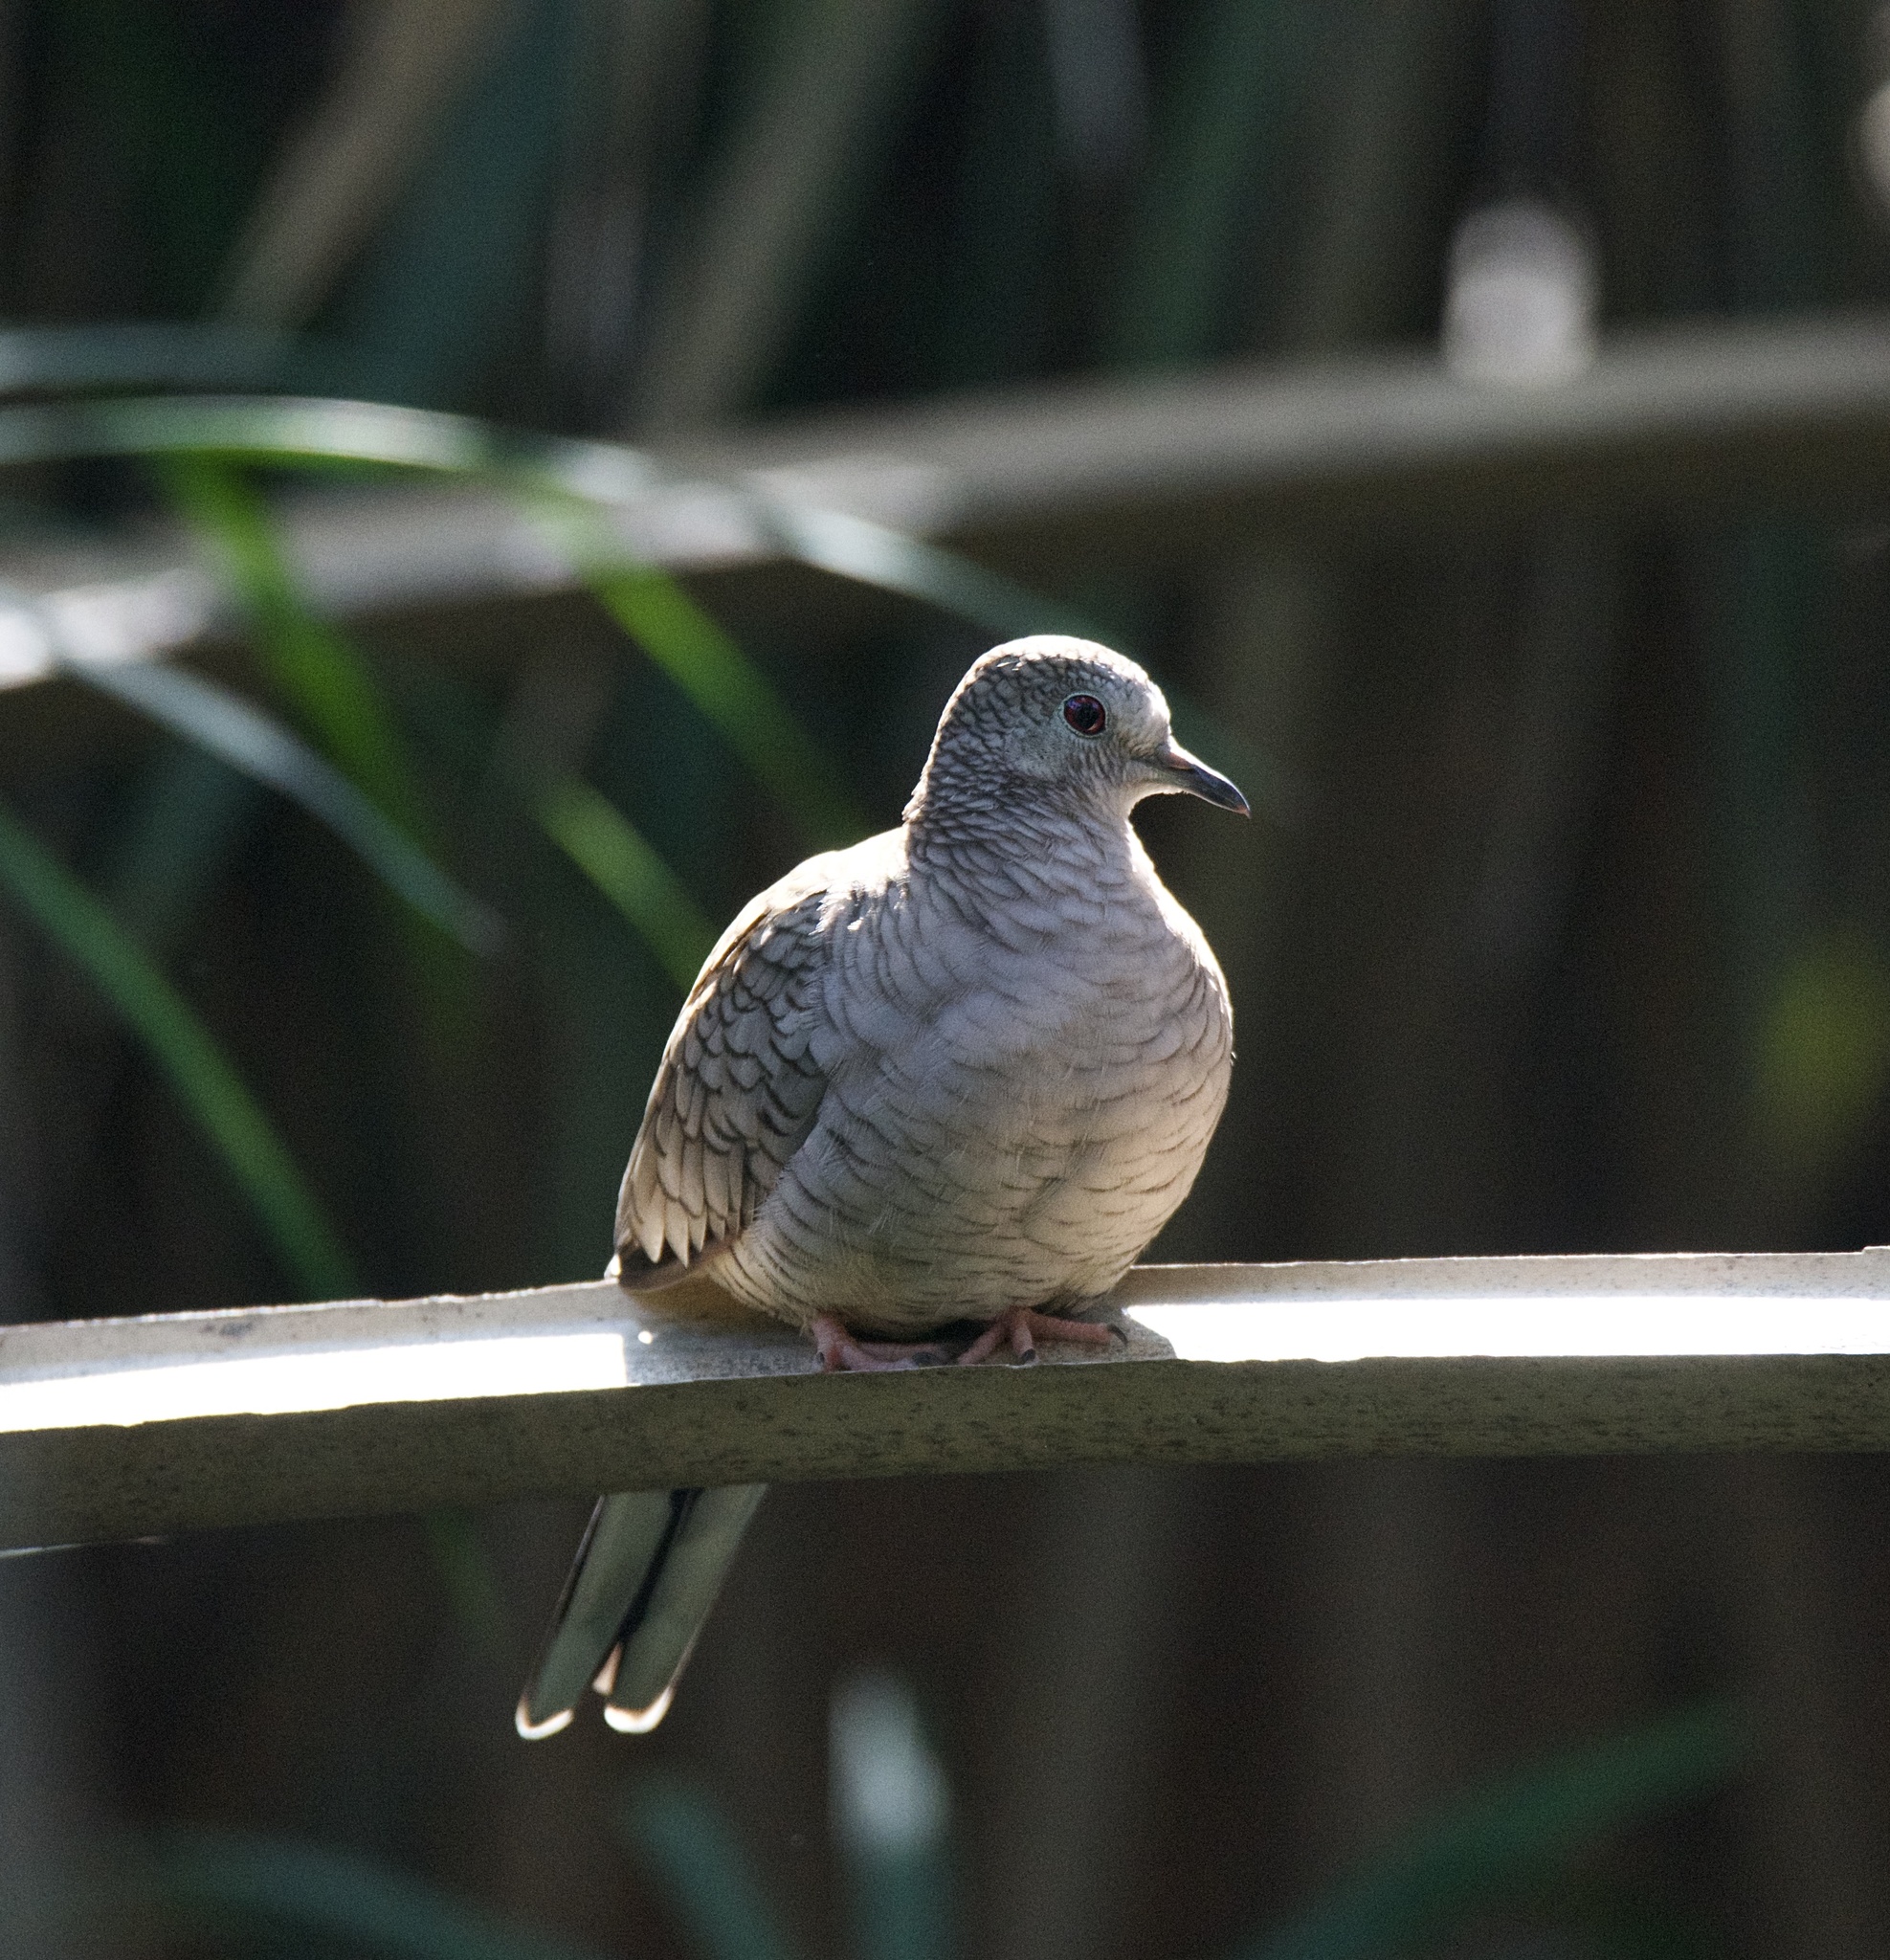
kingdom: Animalia
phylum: Chordata
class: Aves
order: Columbiformes
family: Columbidae
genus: Columbina
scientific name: Columbina inca
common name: Inca dove
